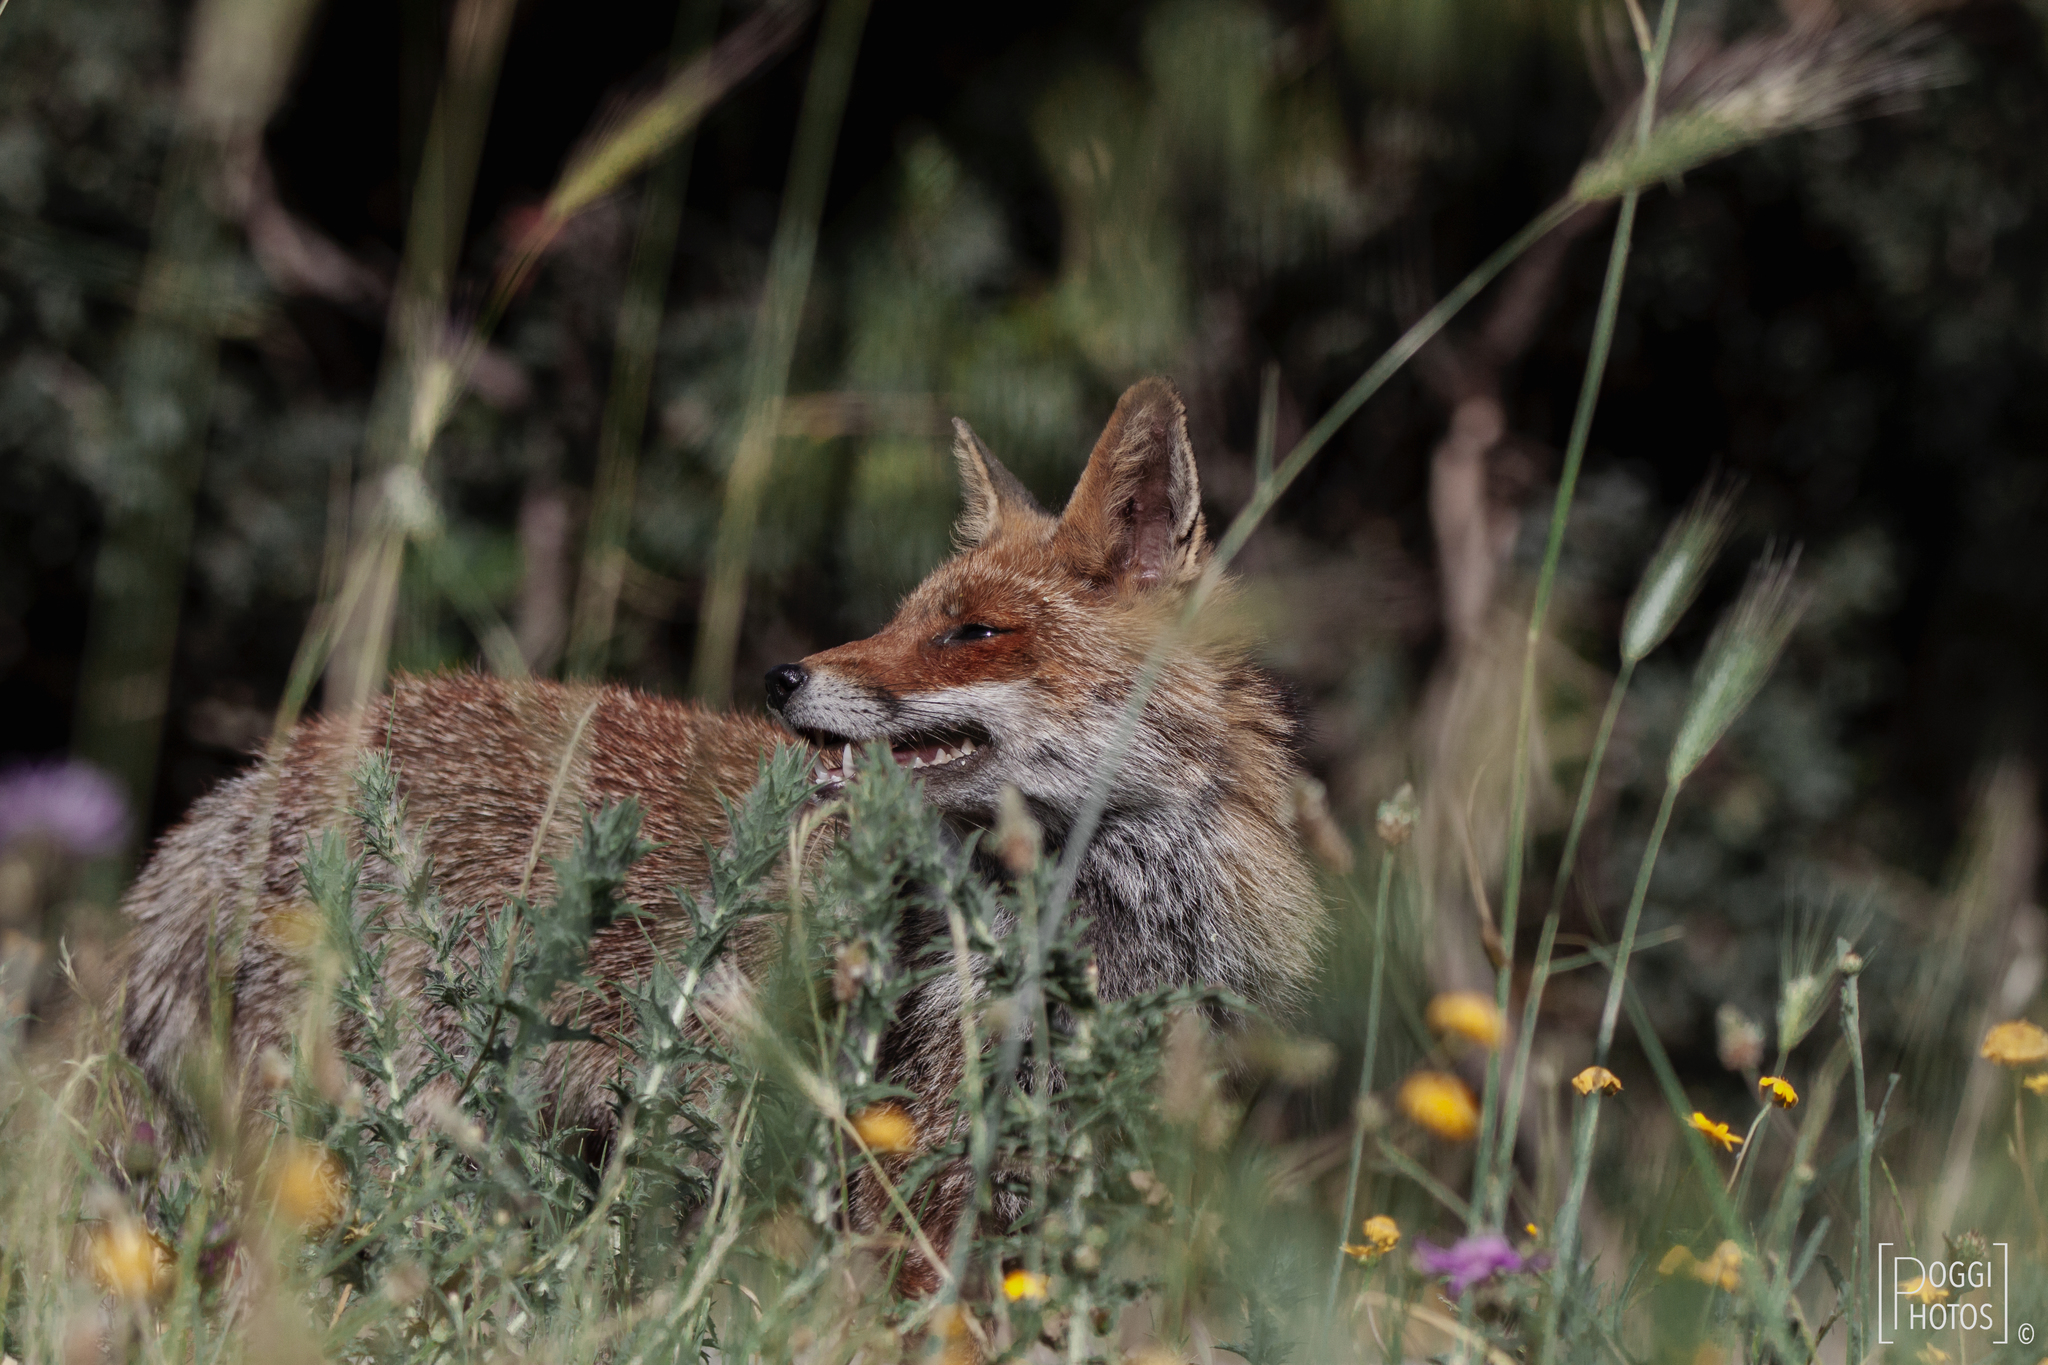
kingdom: Animalia
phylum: Chordata
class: Mammalia
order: Carnivora
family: Canidae
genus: Vulpes
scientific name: Vulpes vulpes
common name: Red fox
